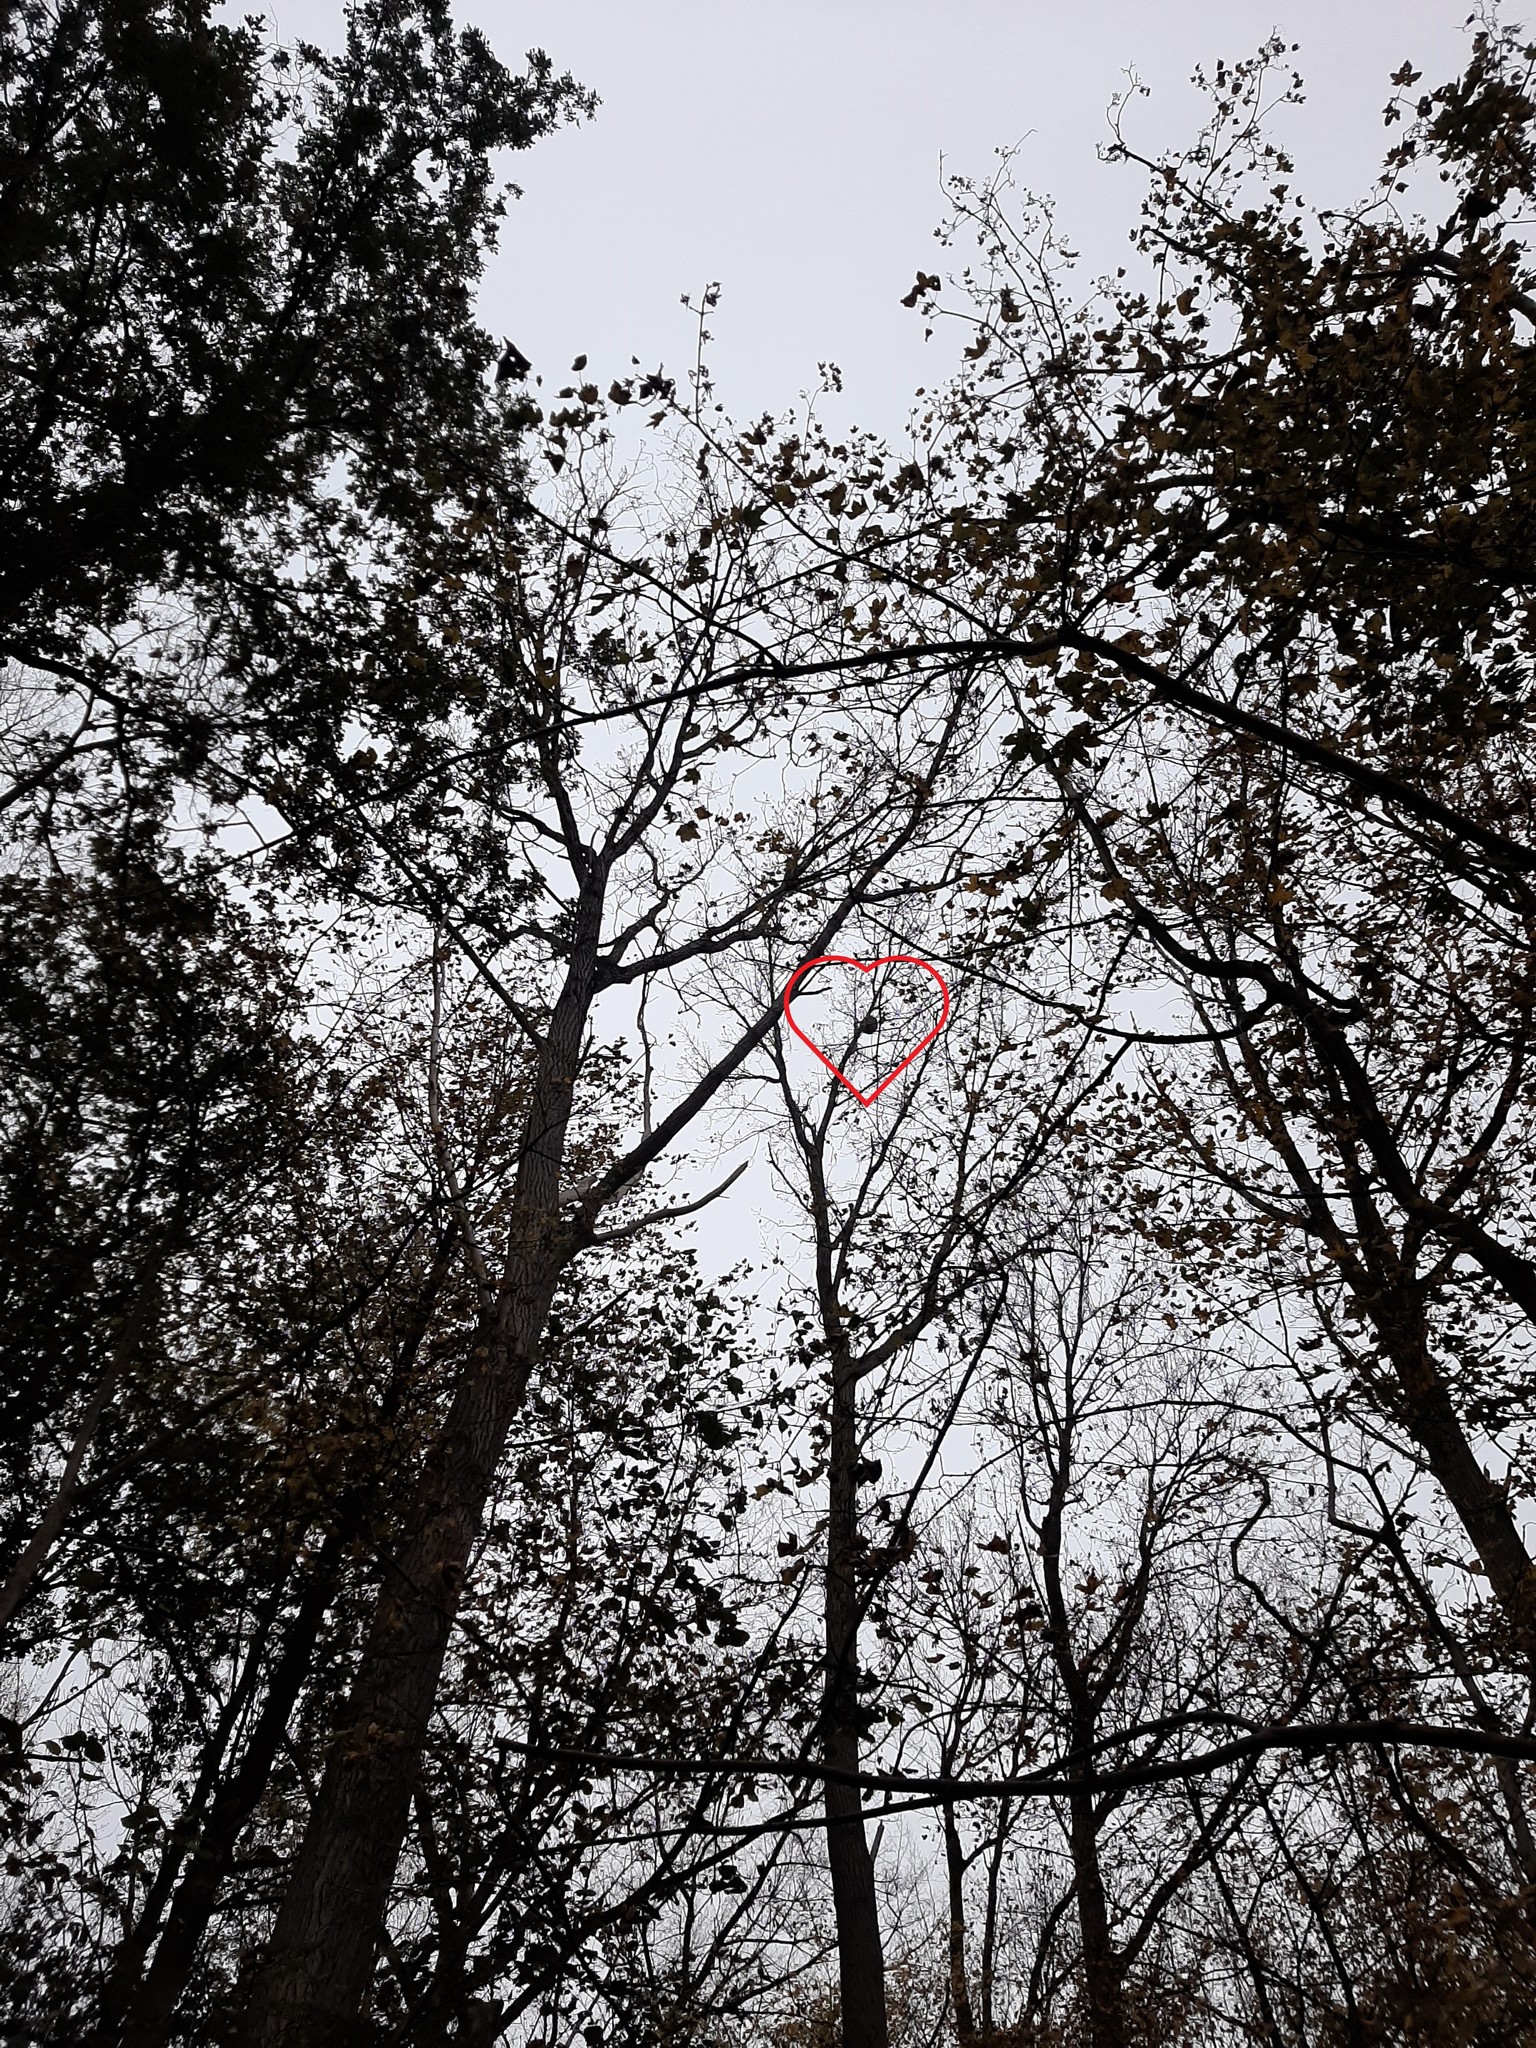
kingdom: Animalia
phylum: Arthropoda
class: Insecta
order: Hymenoptera
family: Vespidae
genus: Vespa
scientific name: Vespa velutina
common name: Asian hornet
